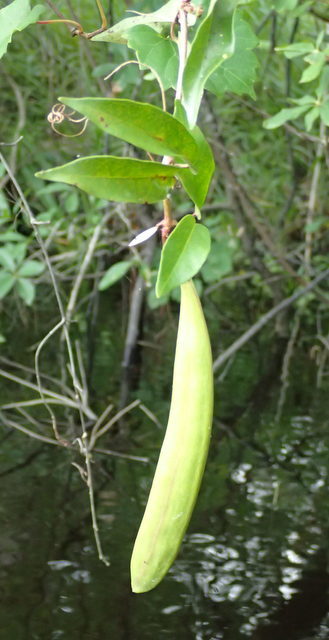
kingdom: Plantae
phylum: Tracheophyta
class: Magnoliopsida
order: Lamiales
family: Bignoniaceae
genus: Bignonia
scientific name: Bignonia capreolata
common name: Crossvine
